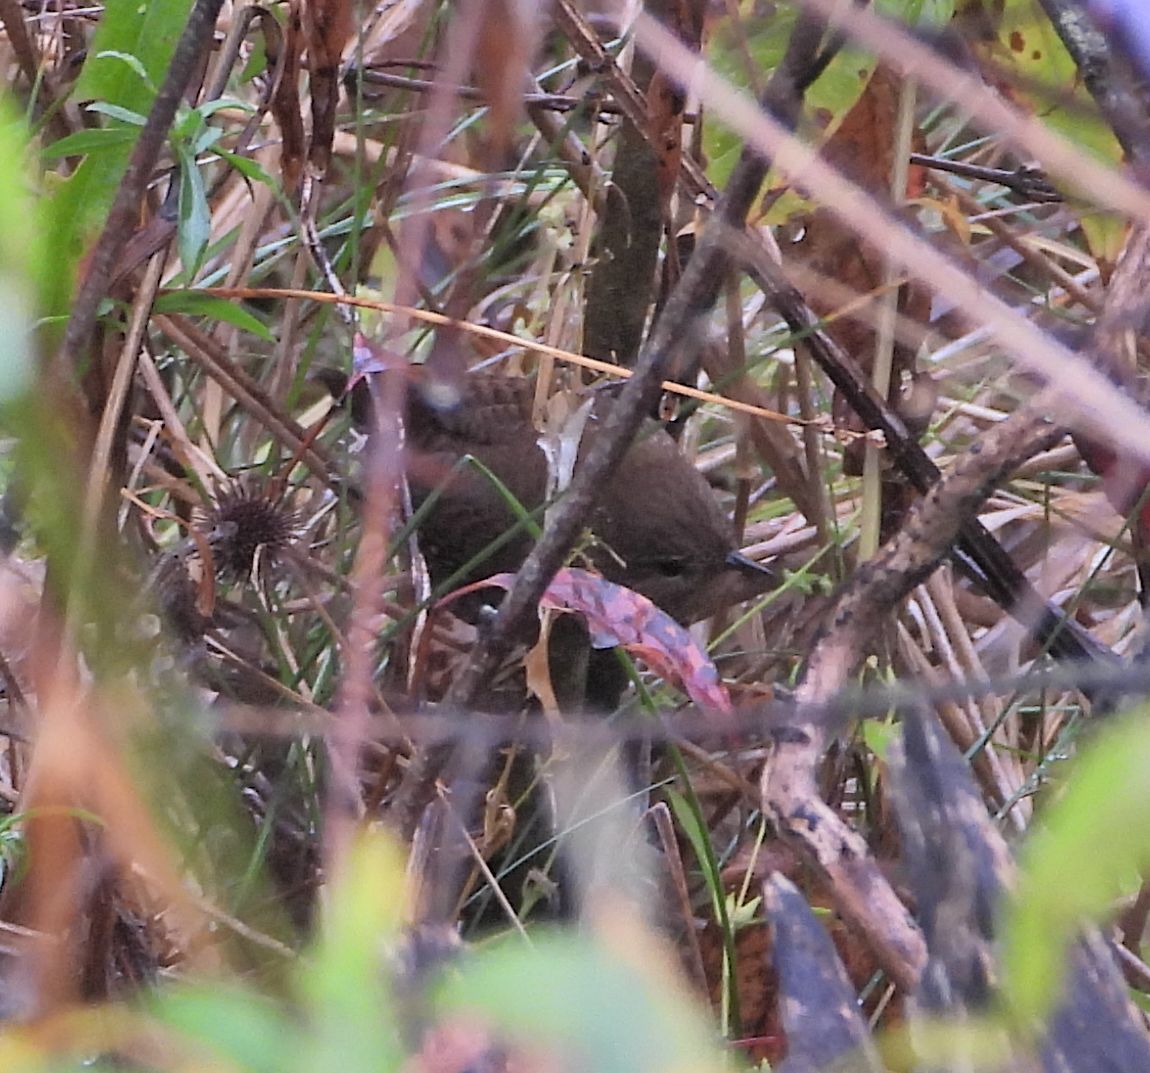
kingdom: Animalia
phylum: Chordata
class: Aves
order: Passeriformes
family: Troglodytidae
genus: Troglodytes
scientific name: Troglodytes hiemalis
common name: Winter wren
